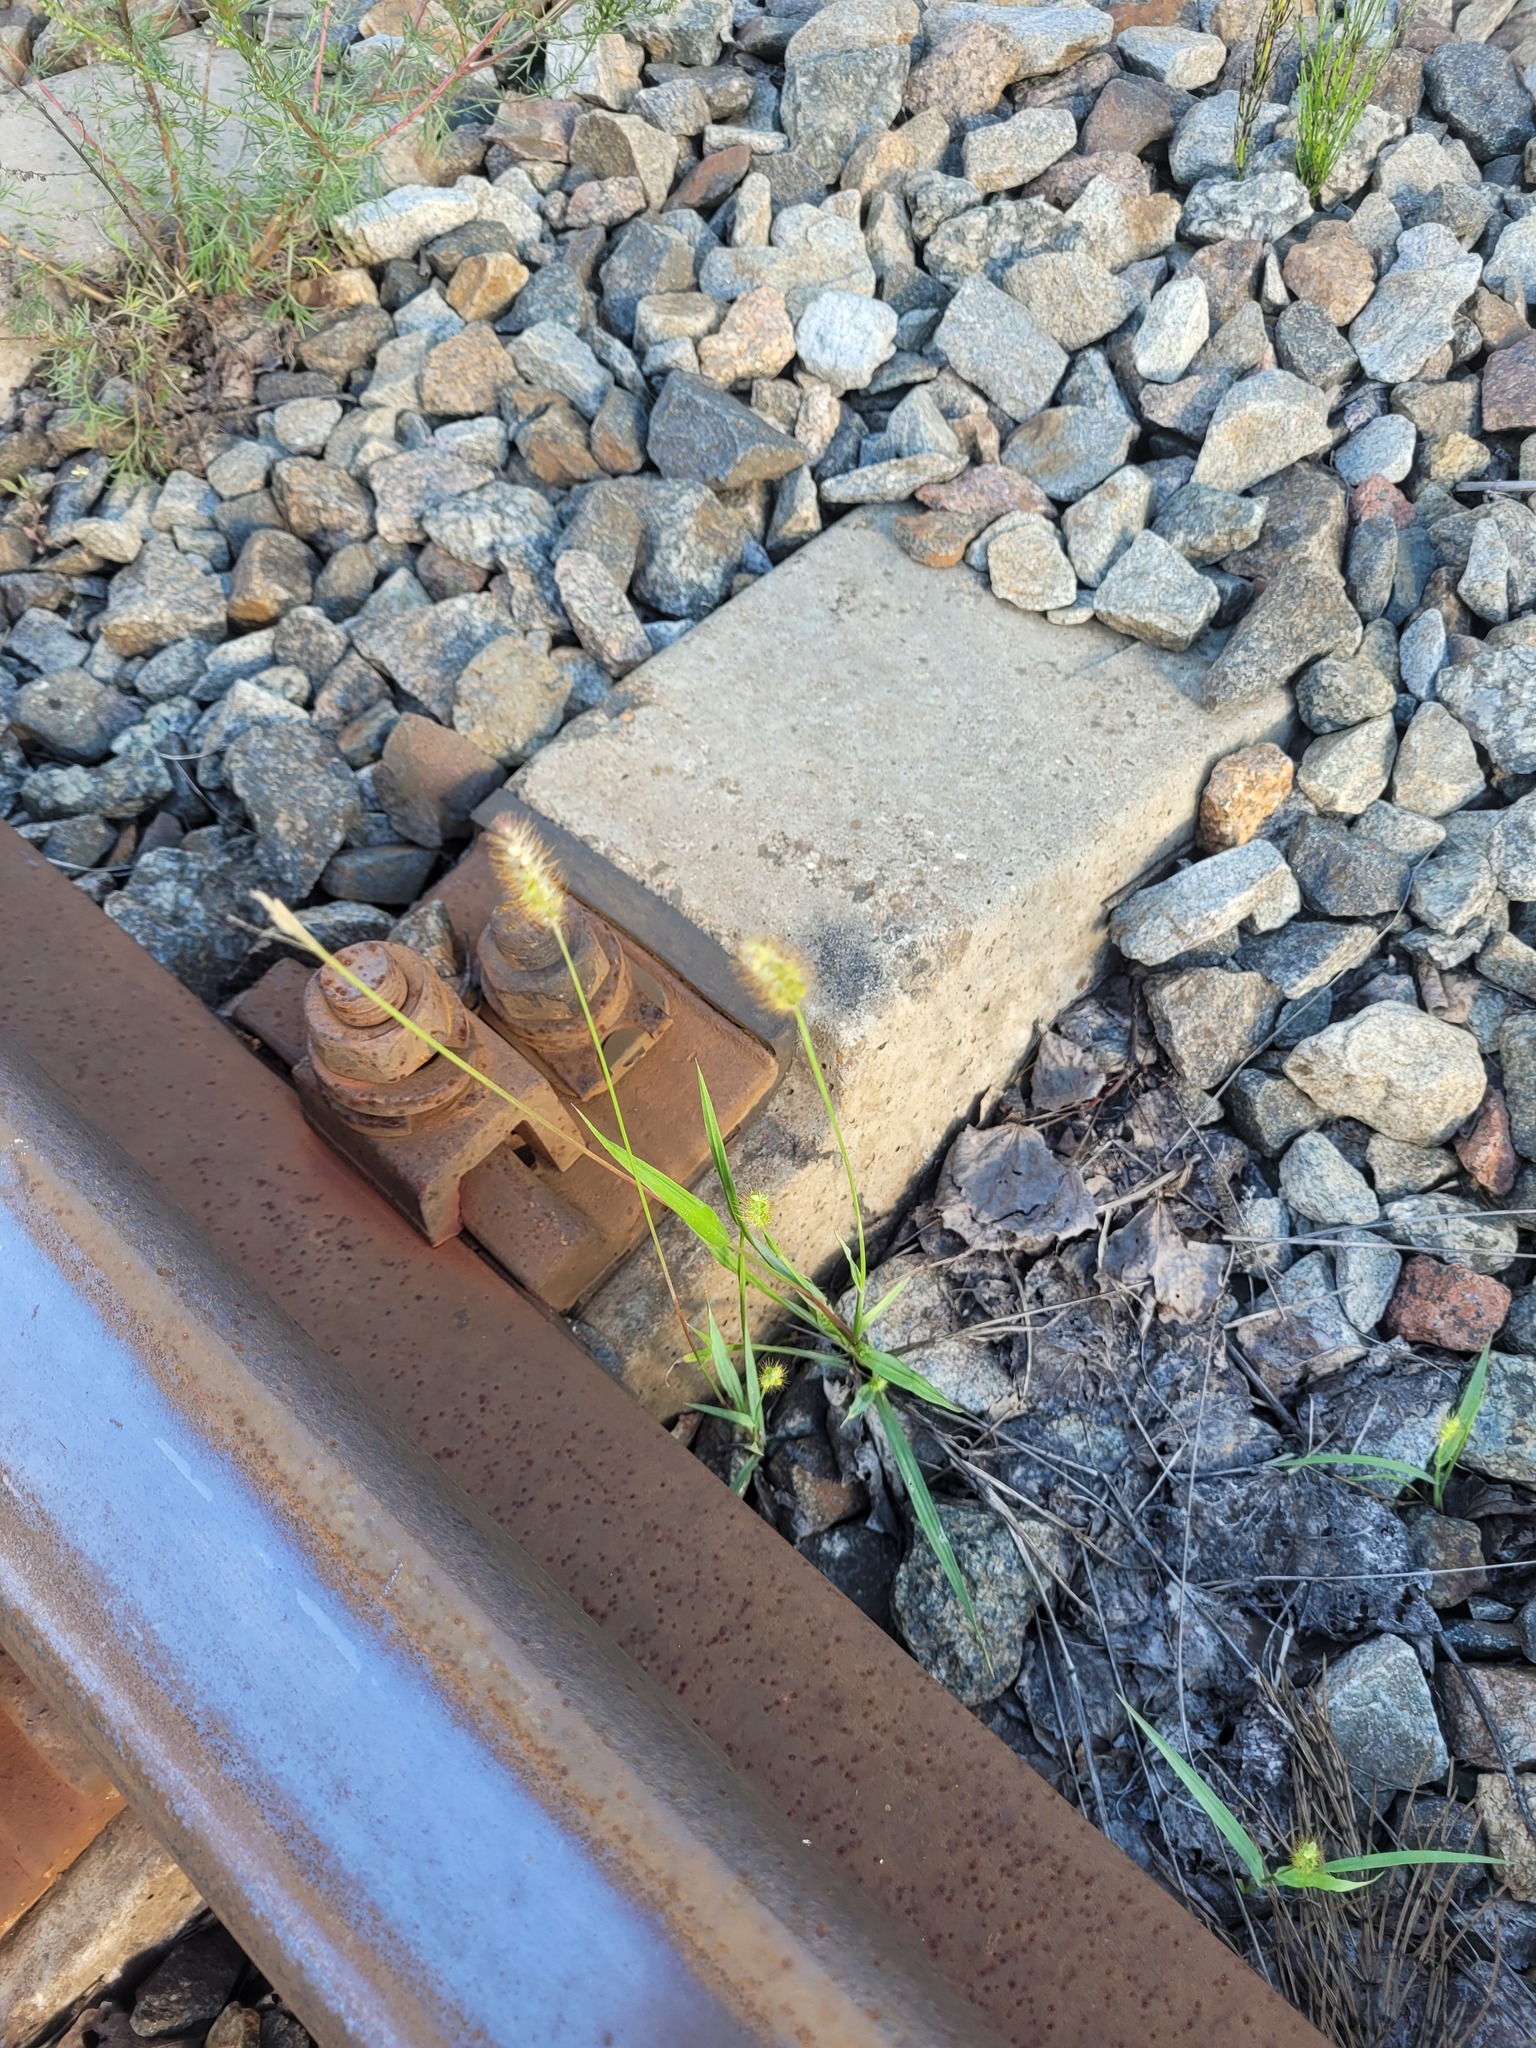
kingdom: Plantae
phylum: Tracheophyta
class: Liliopsida
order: Poales
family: Poaceae
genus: Setaria
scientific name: Setaria pumila
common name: Yellow bristle-grass
